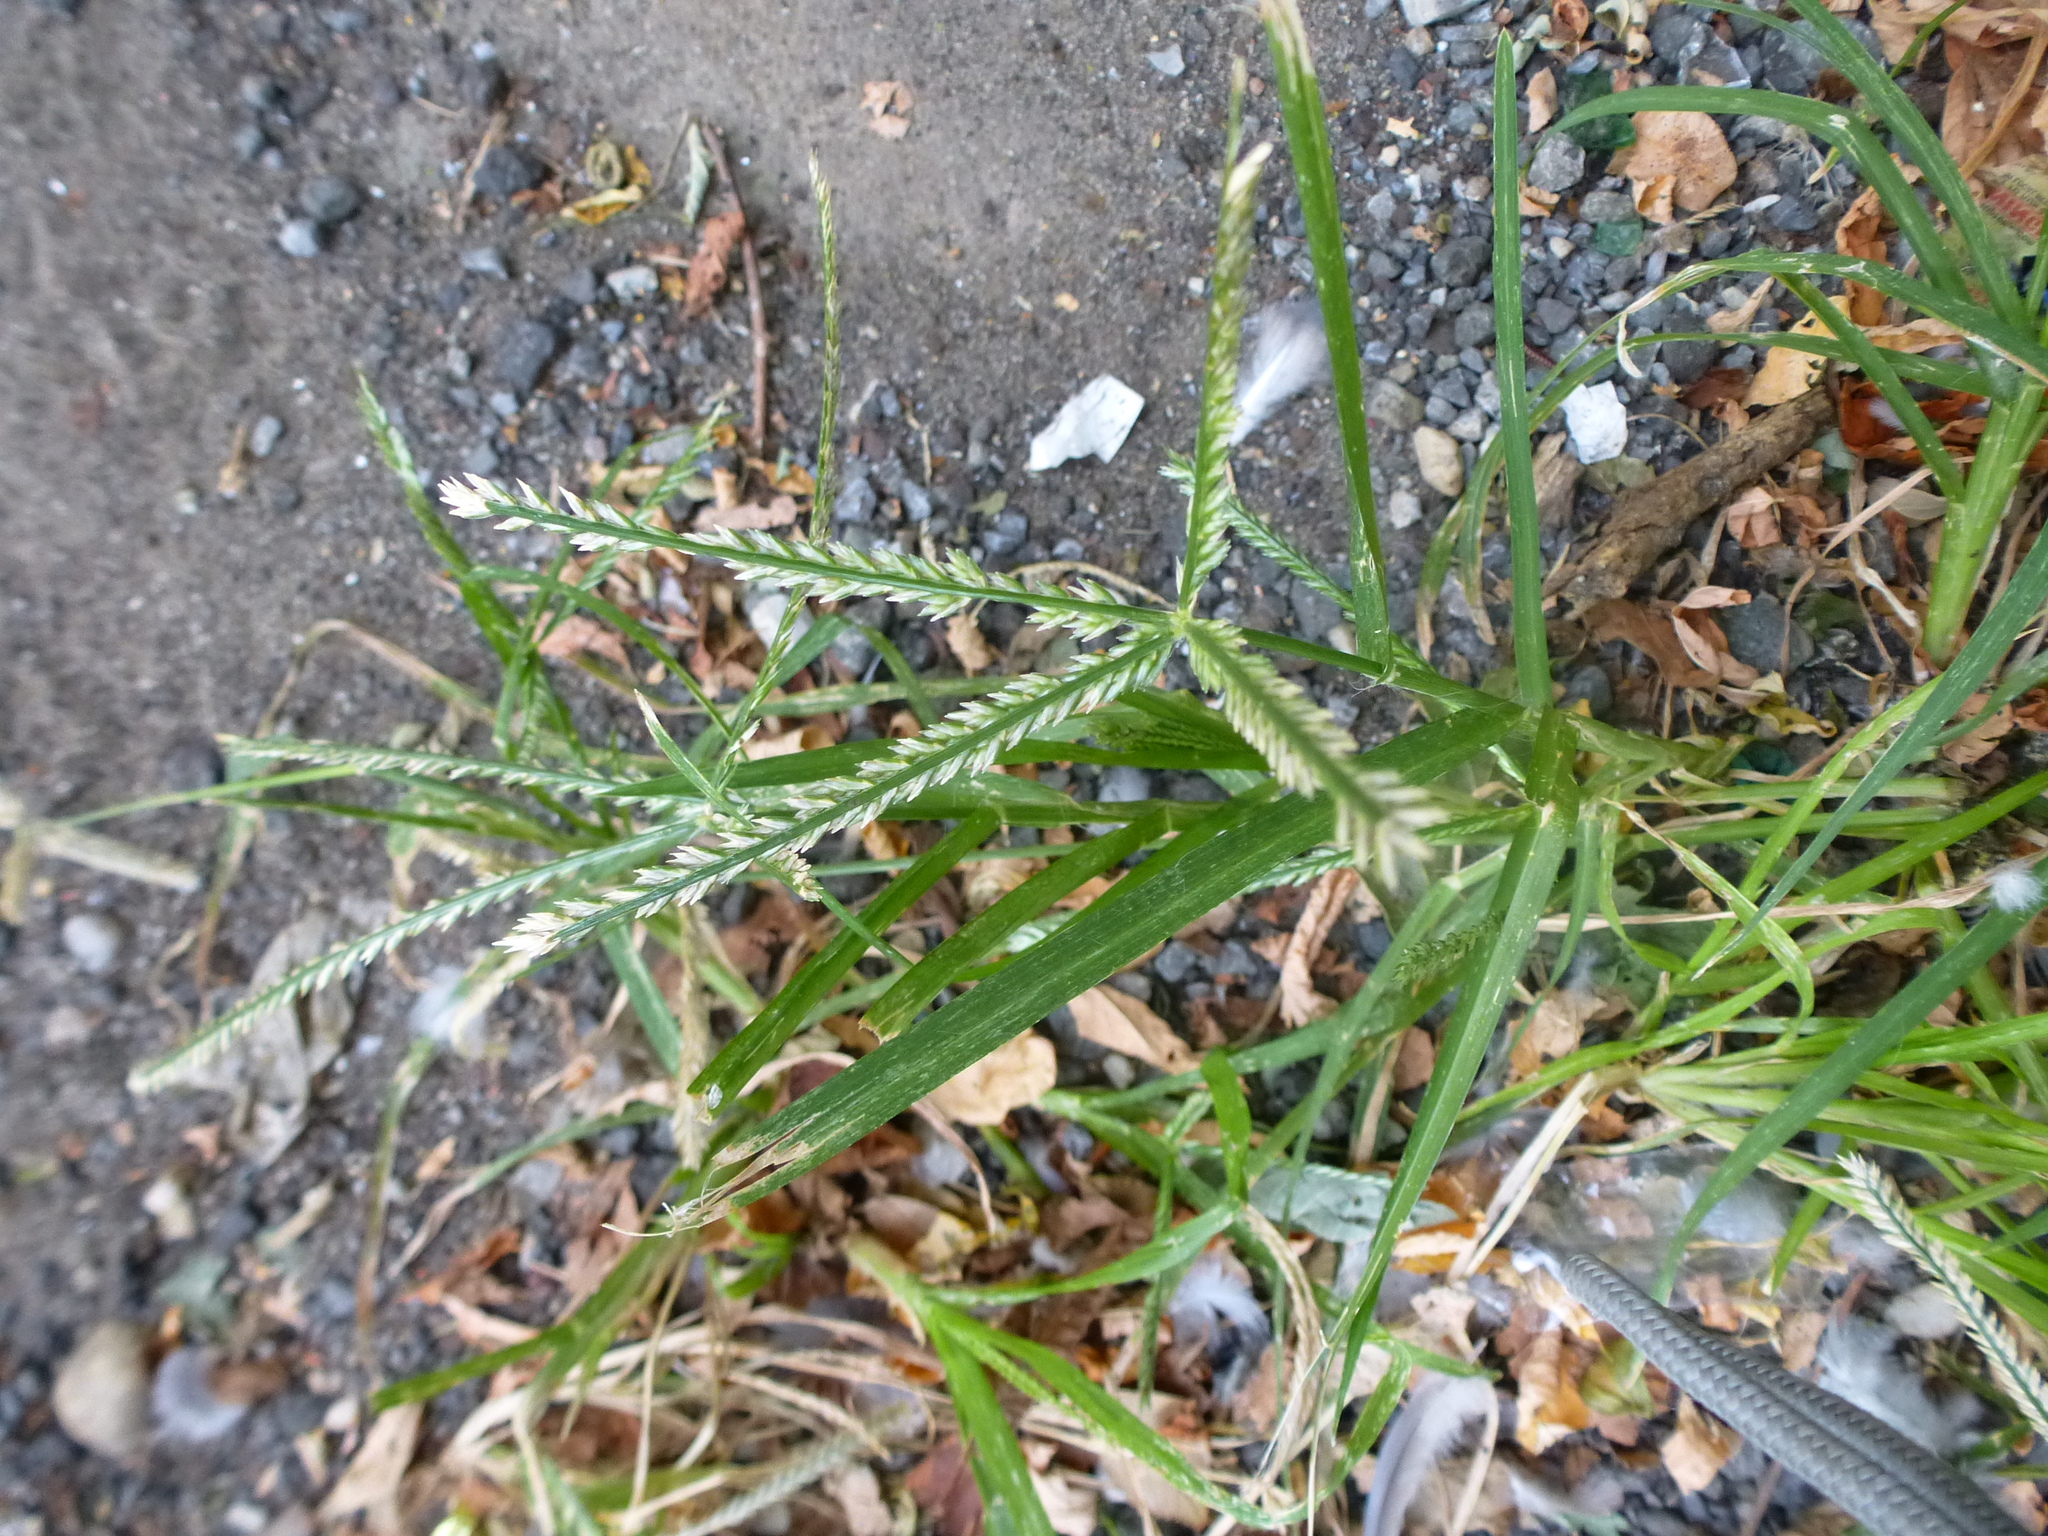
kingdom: Plantae
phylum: Tracheophyta
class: Liliopsida
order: Poales
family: Poaceae
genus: Eleusine
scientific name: Eleusine indica
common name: Yard-grass
